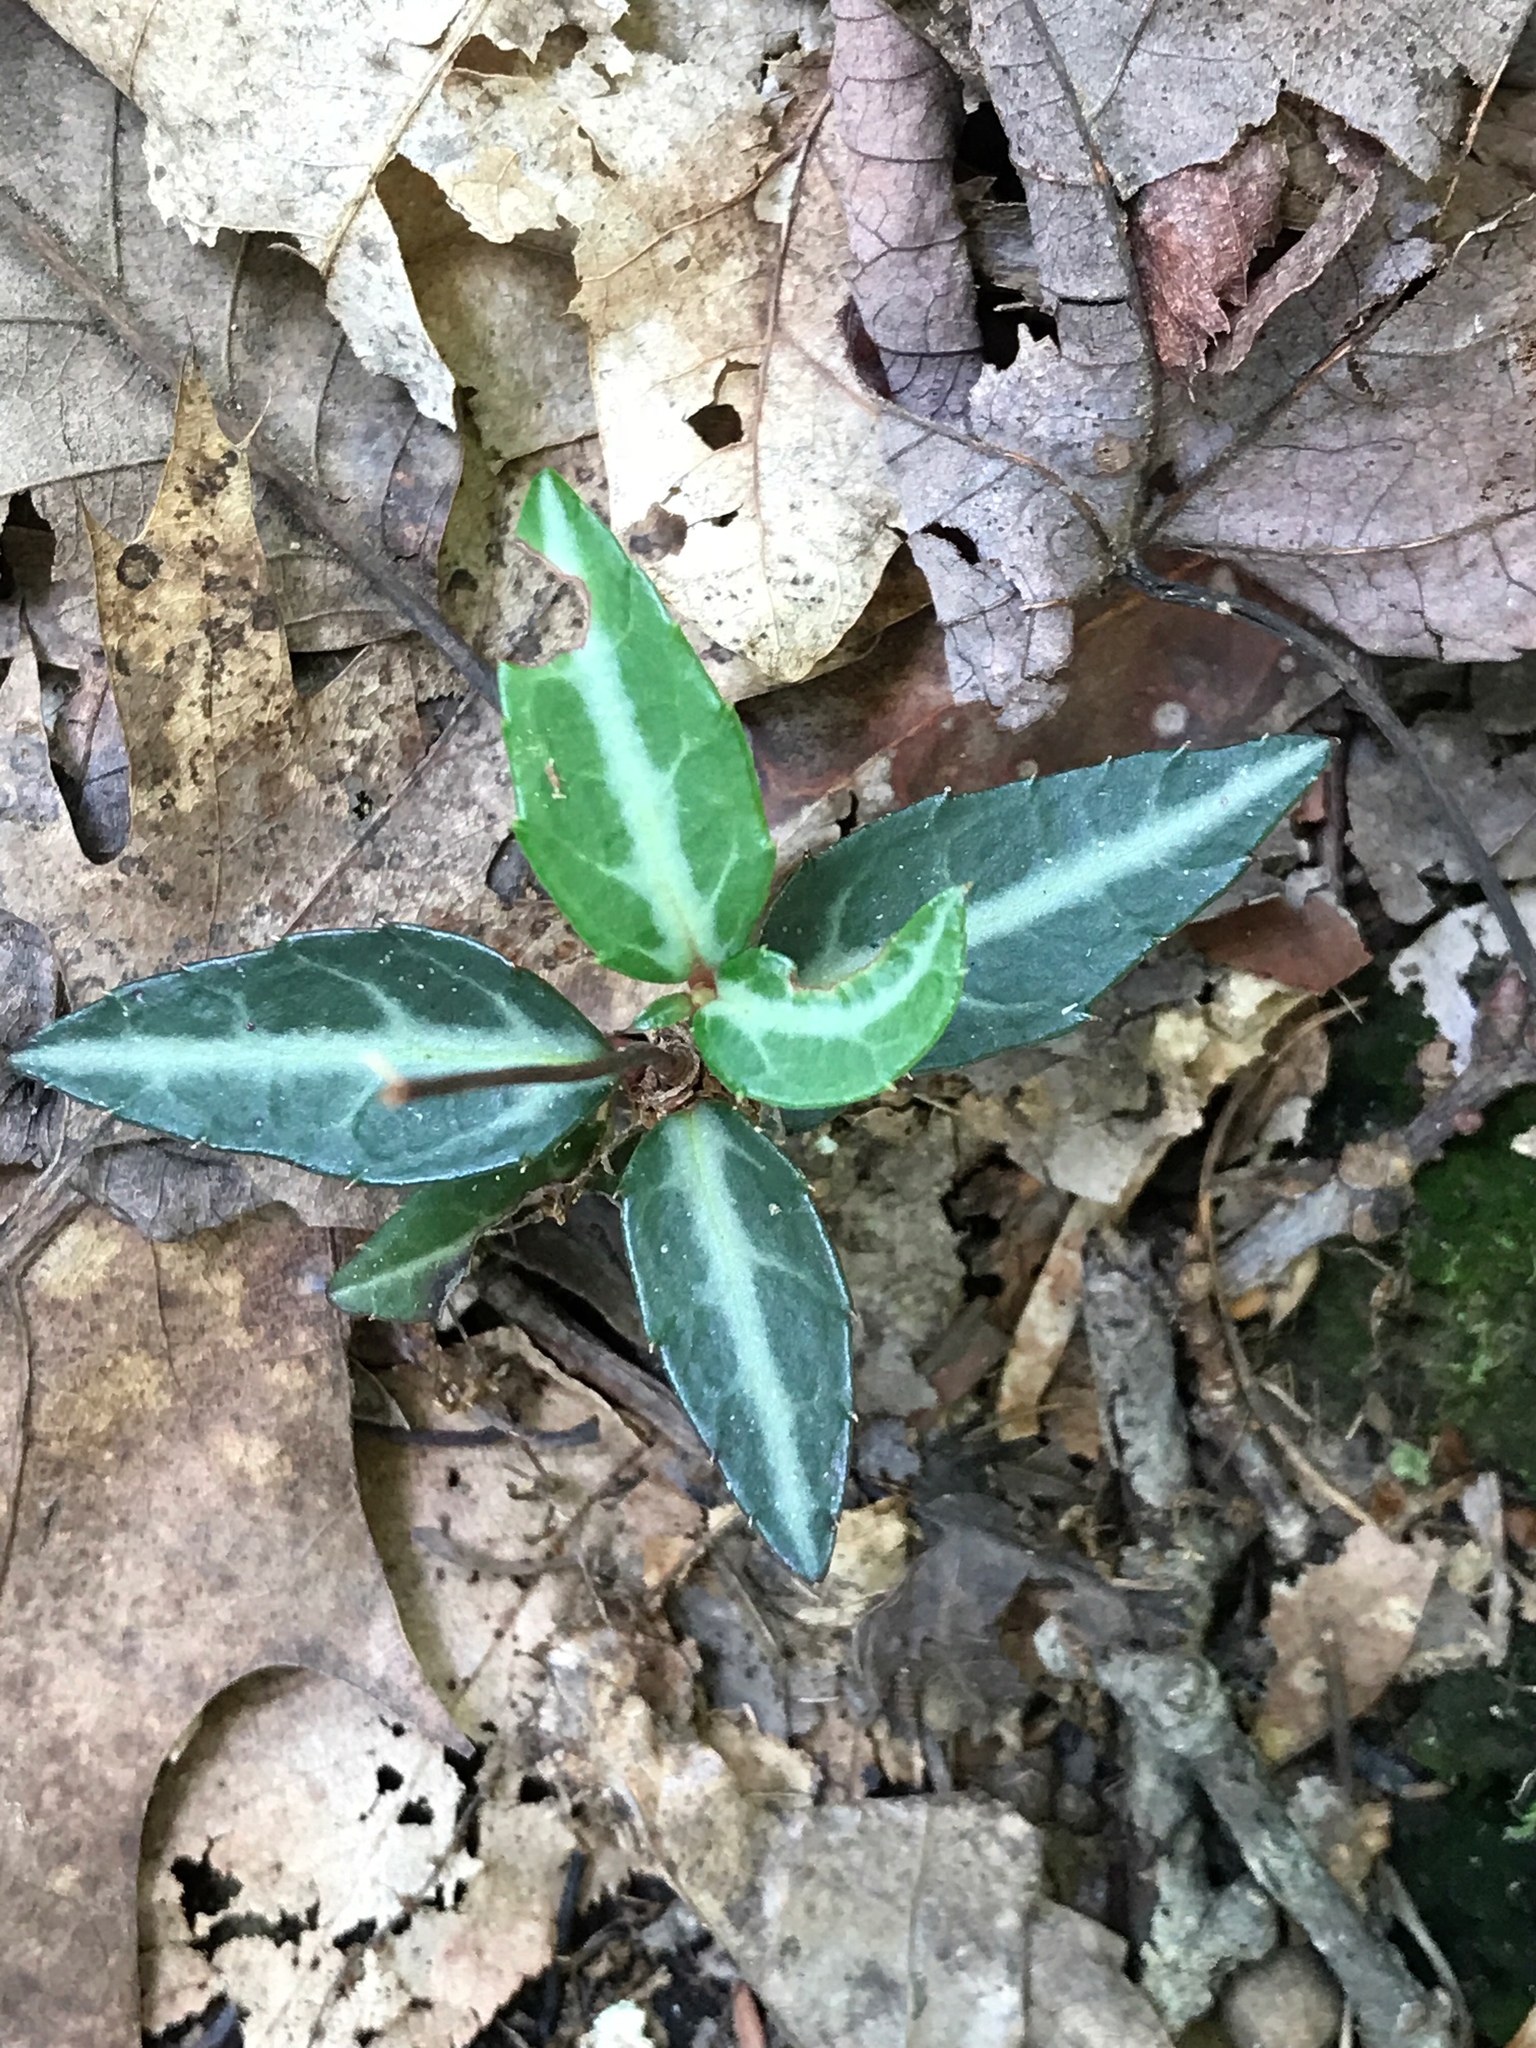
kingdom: Plantae
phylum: Tracheophyta
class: Magnoliopsida
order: Ericales
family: Ericaceae
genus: Chimaphila
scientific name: Chimaphila maculata
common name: Spotted pipsissewa
